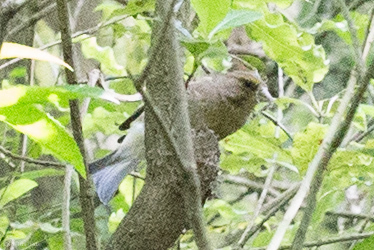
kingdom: Plantae
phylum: Tracheophyta
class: Liliopsida
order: Poales
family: Poaceae
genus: Chloris
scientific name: Chloris chloris
